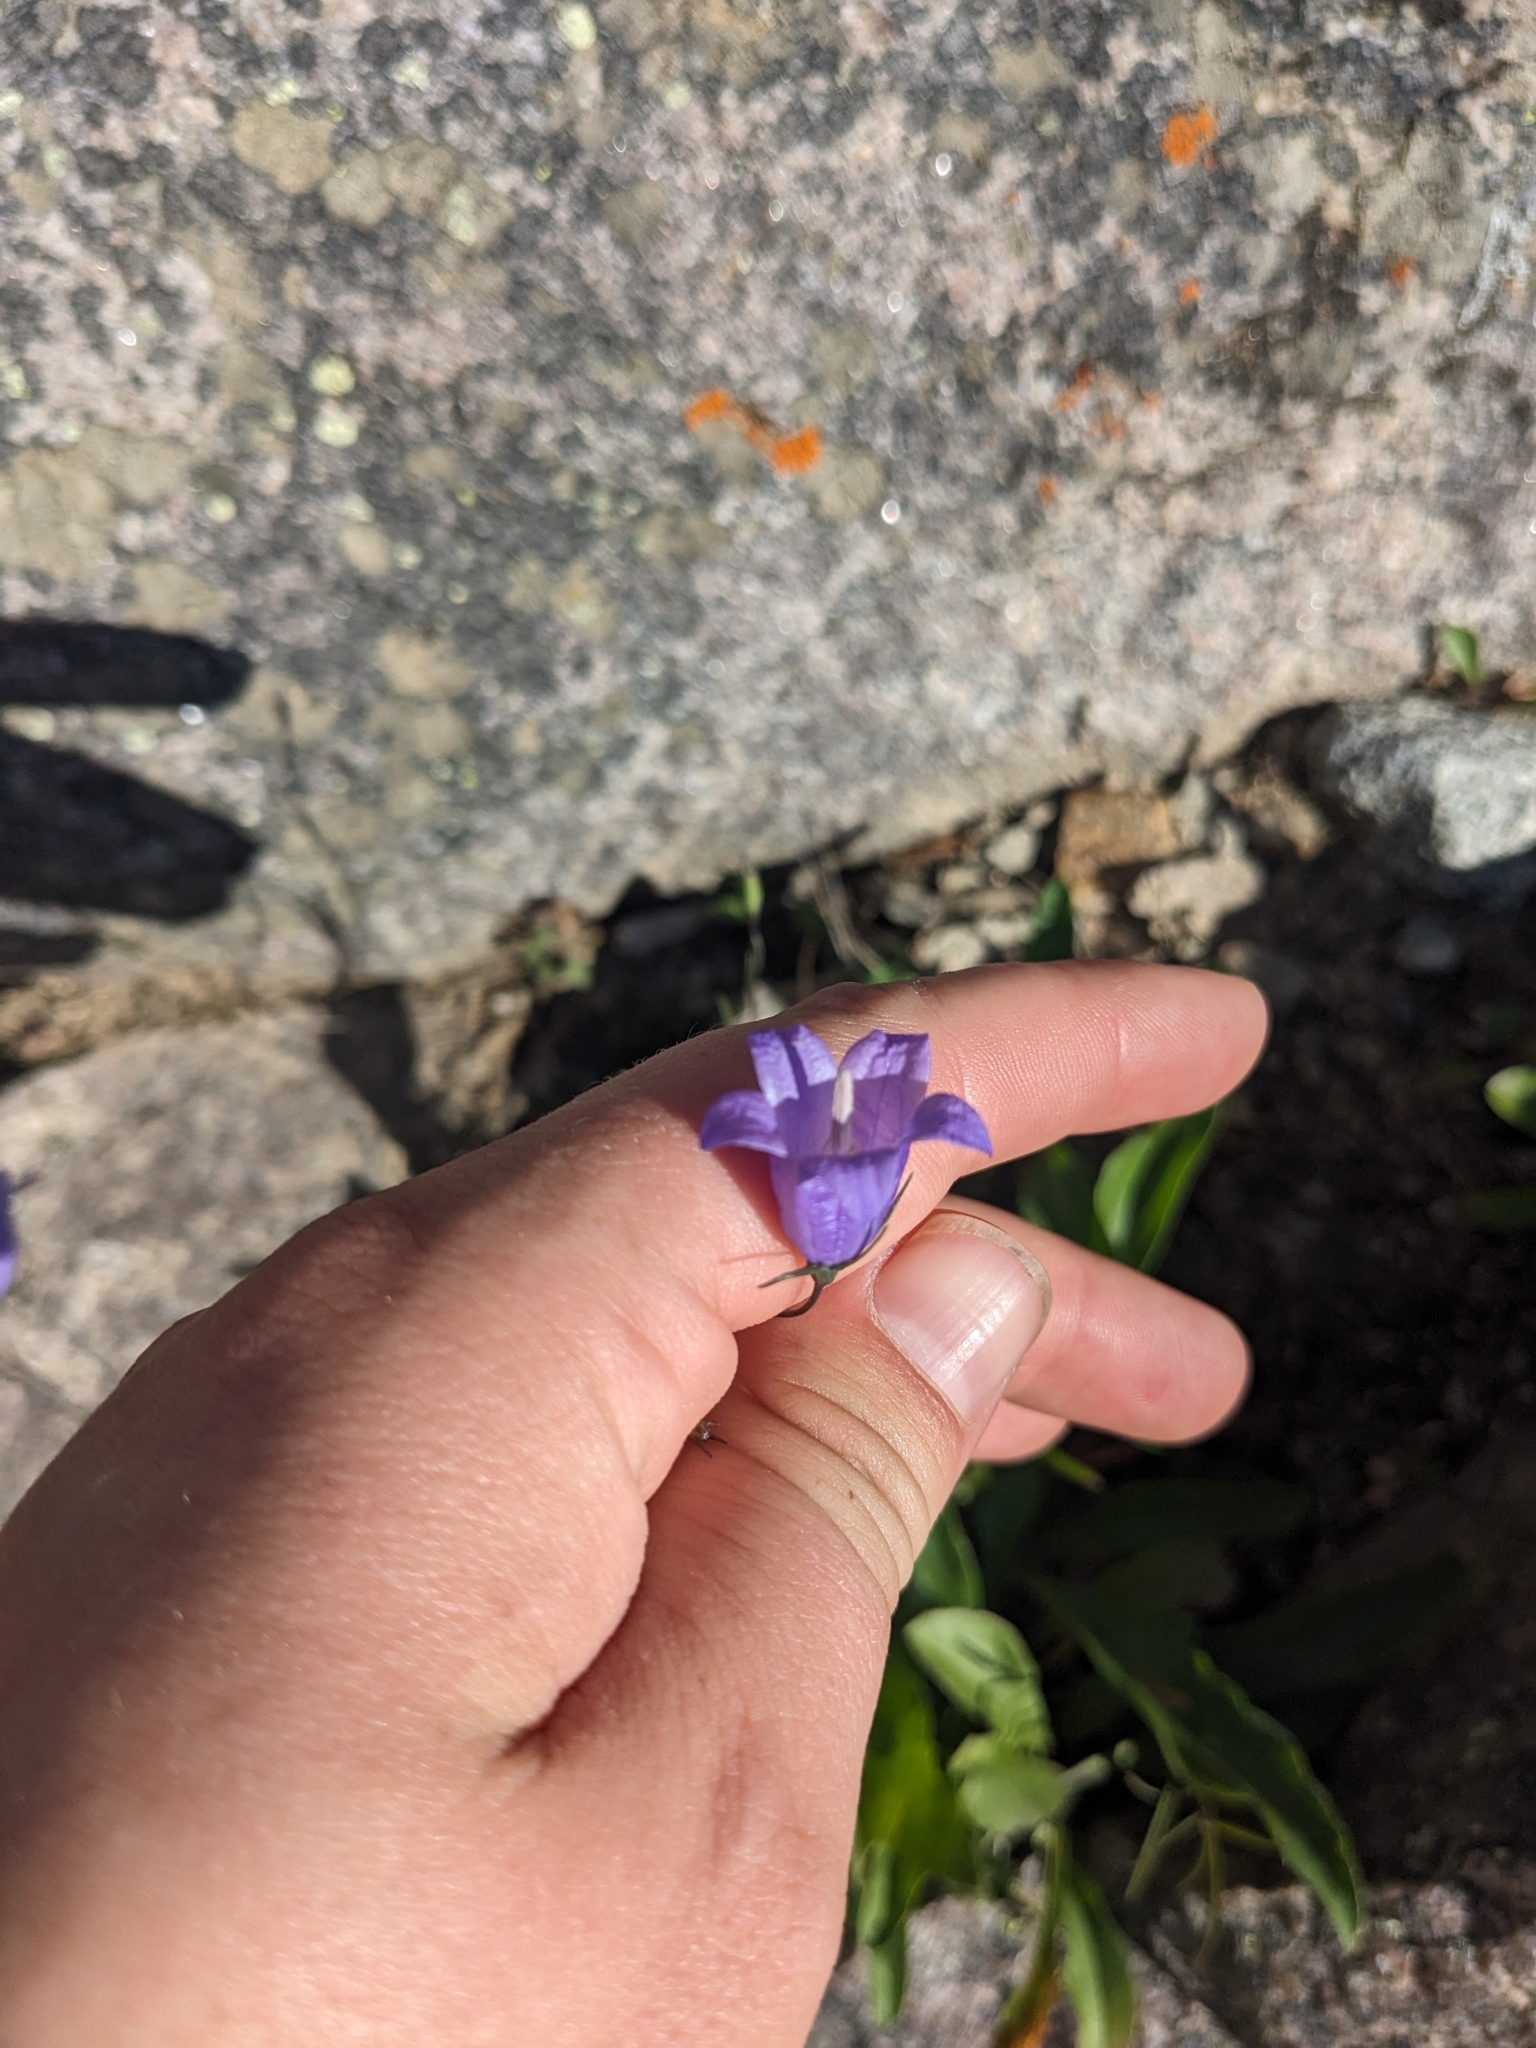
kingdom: Plantae
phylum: Tracheophyta
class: Magnoliopsida
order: Asterales
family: Campanulaceae
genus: Campanula
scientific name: Campanula
